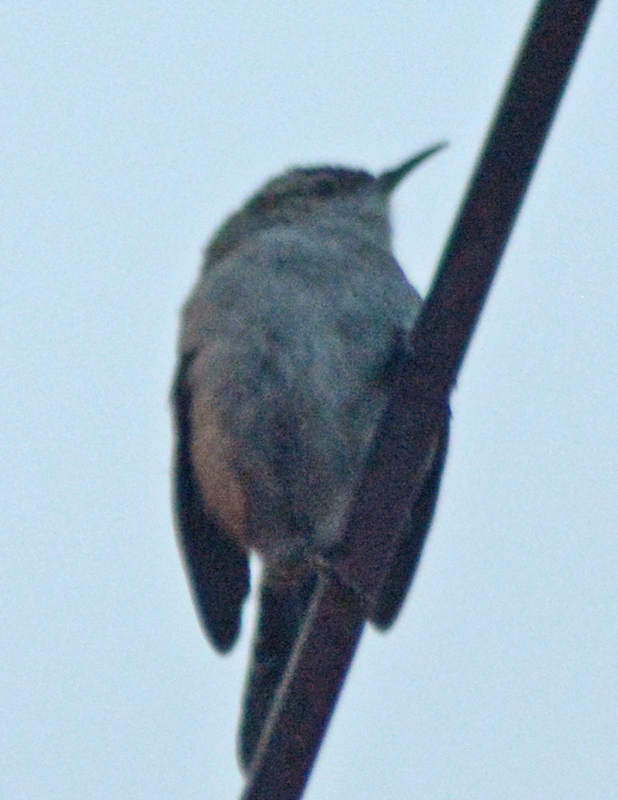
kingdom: Animalia
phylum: Chordata
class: Aves
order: Passeriformes
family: Troglodytidae
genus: Thryomanes
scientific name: Thryomanes bewickii
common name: Bewick's wren
